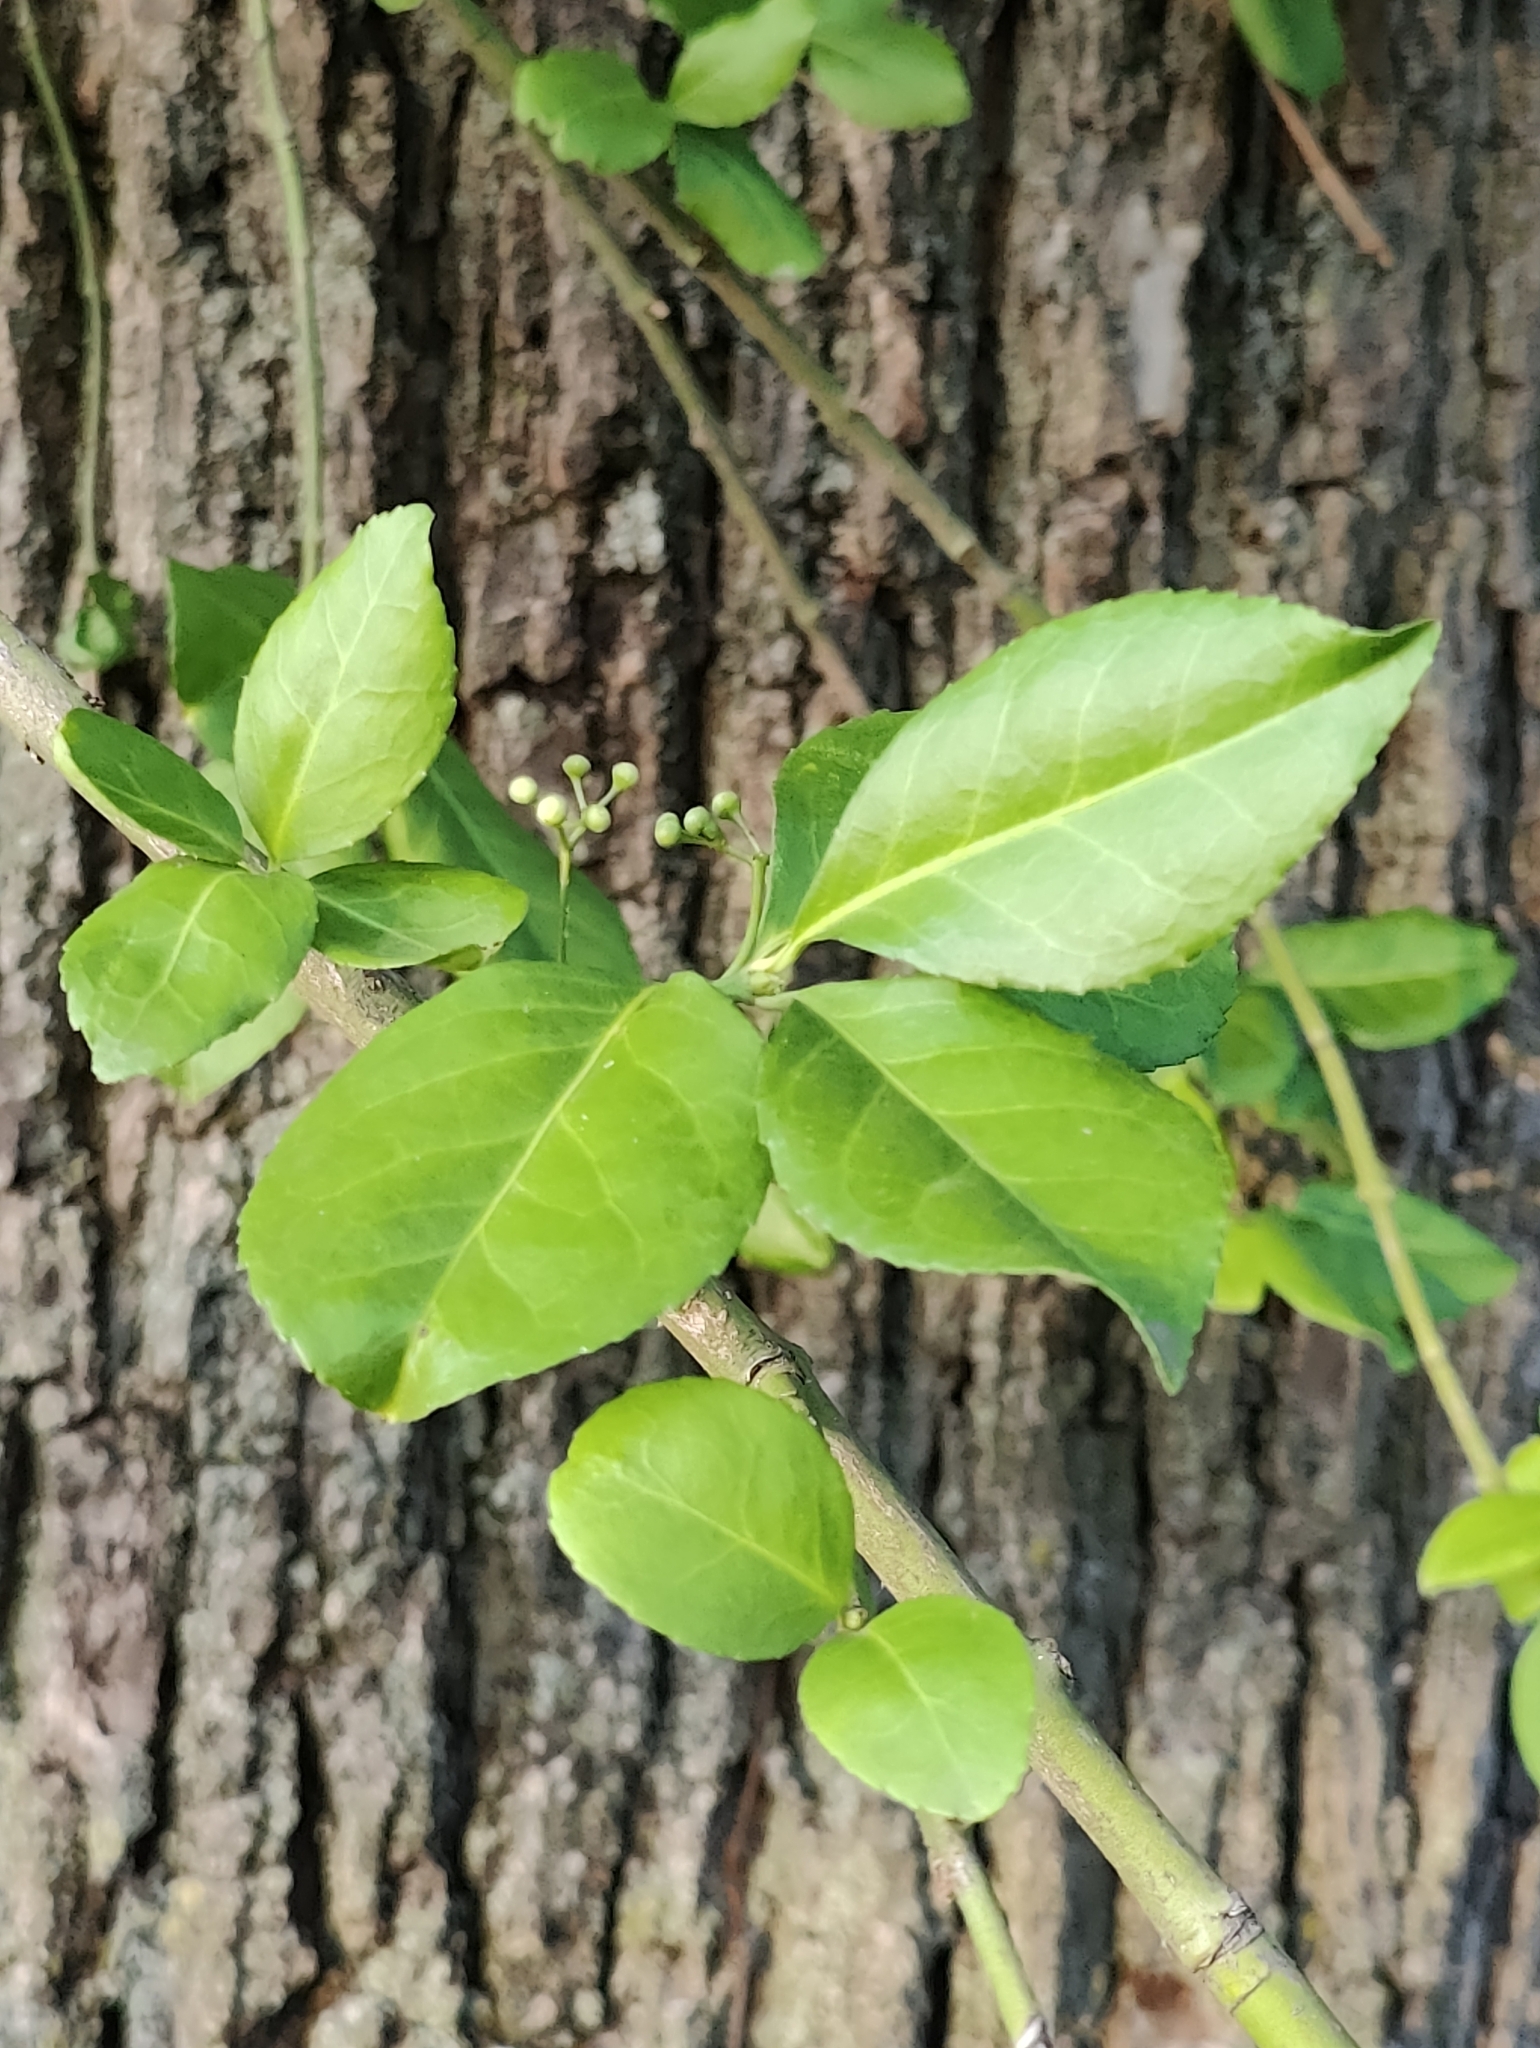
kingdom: Plantae
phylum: Tracheophyta
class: Magnoliopsida
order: Celastrales
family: Celastraceae
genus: Euonymus
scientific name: Euonymus fortunei
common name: Climbing euonymus
